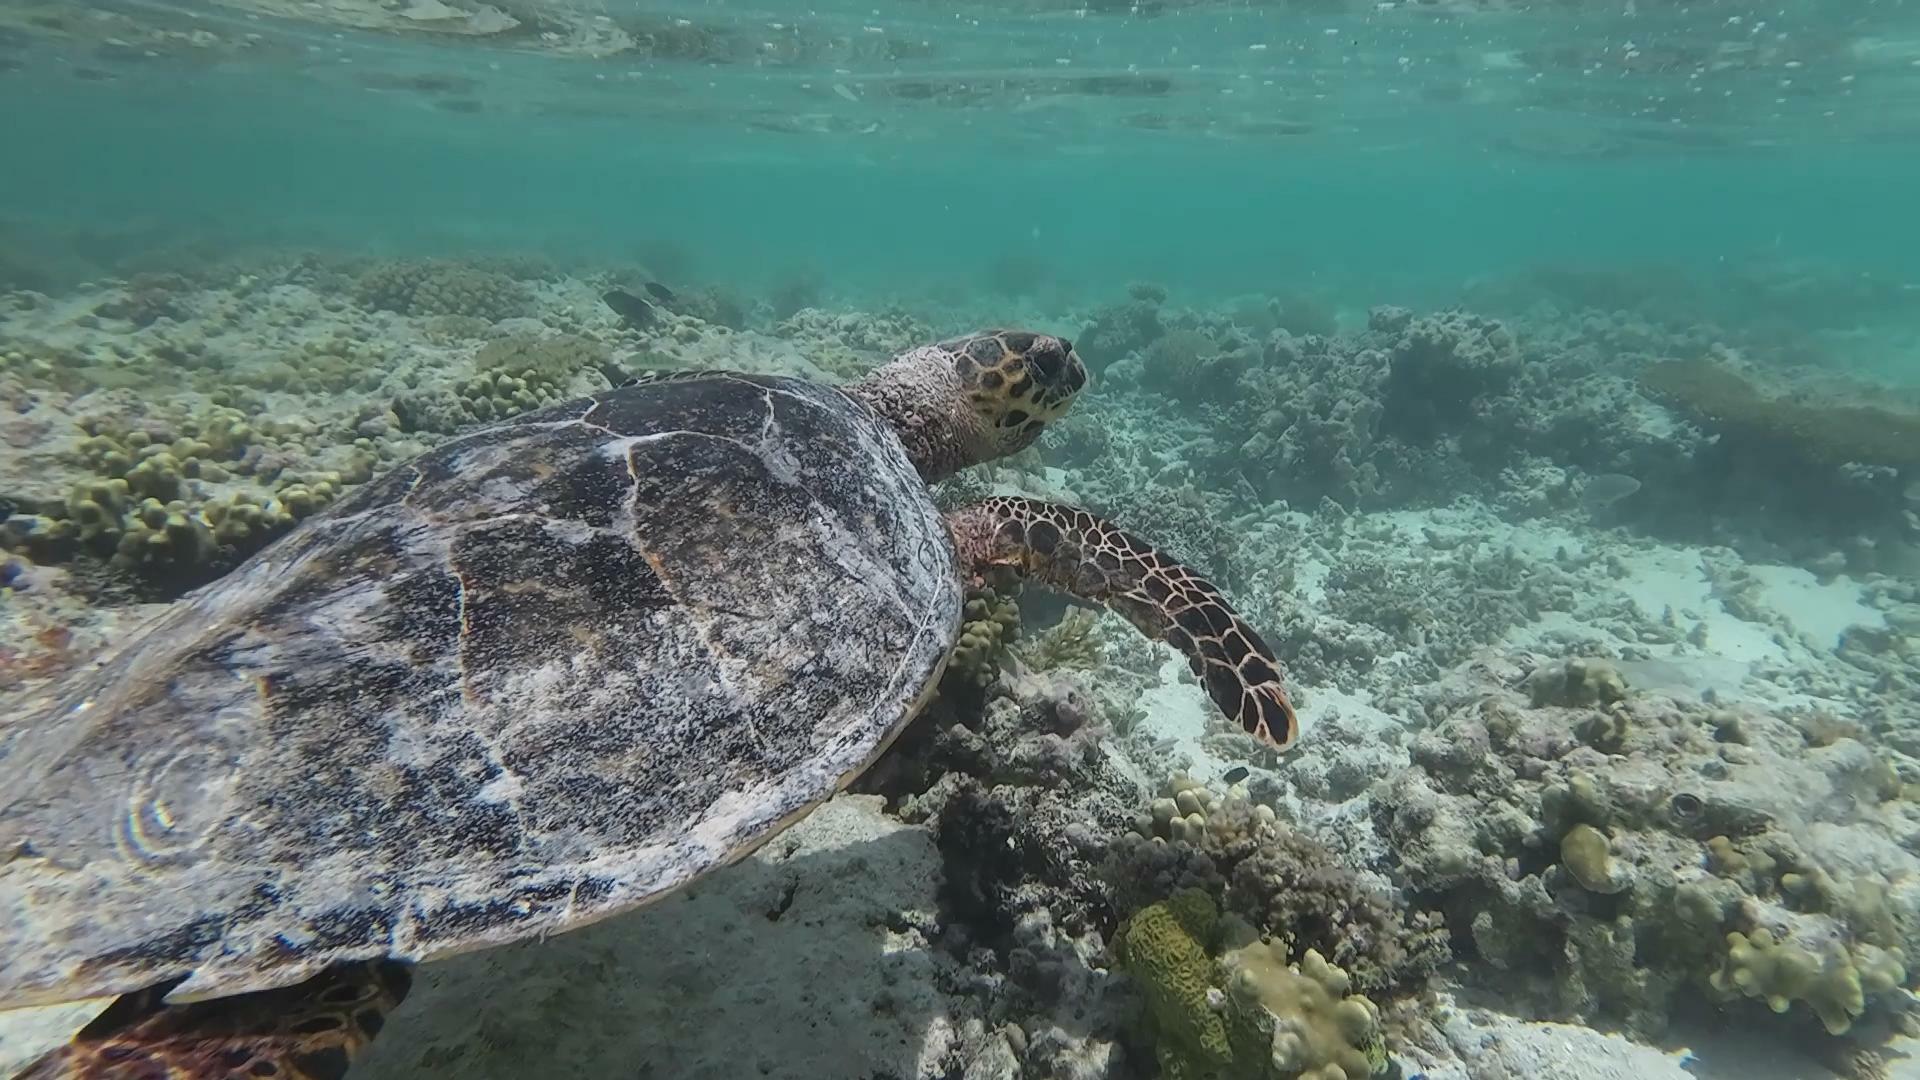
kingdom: Animalia
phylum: Chordata
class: Testudines
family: Cheloniidae
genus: Eretmochelys
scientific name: Eretmochelys imbricata
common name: Hawksbill turtle
